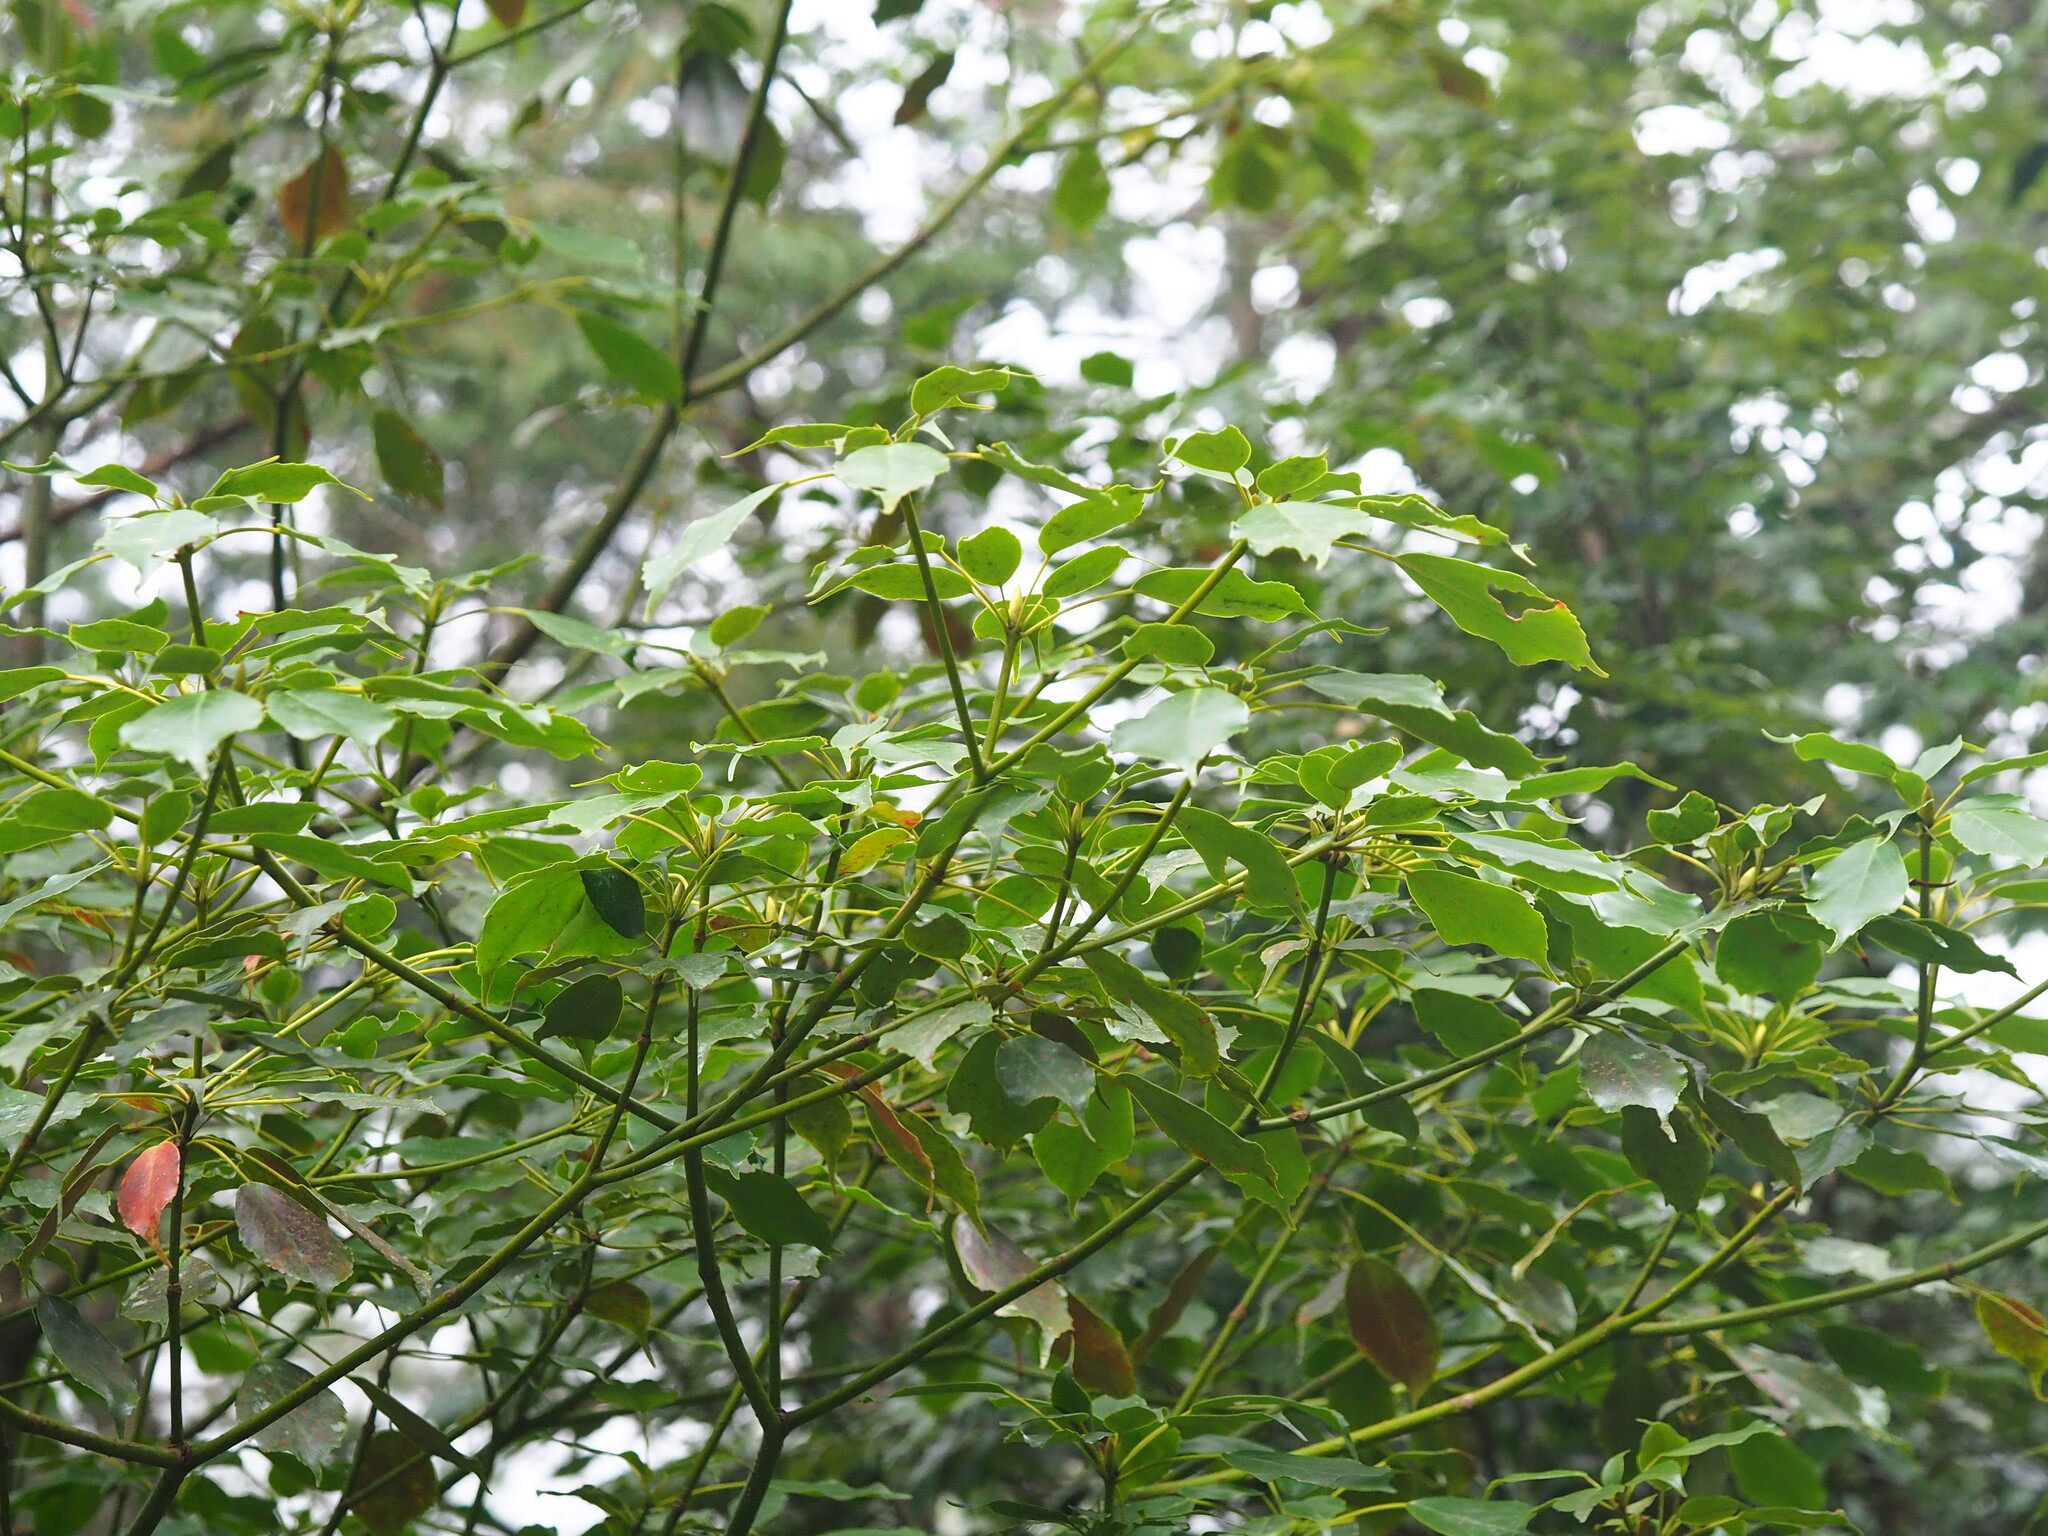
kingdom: Plantae
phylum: Tracheophyta
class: Magnoliopsida
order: Trochodendrales
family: Trochodendraceae
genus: Trochodendron
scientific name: Trochodendron aralioides
